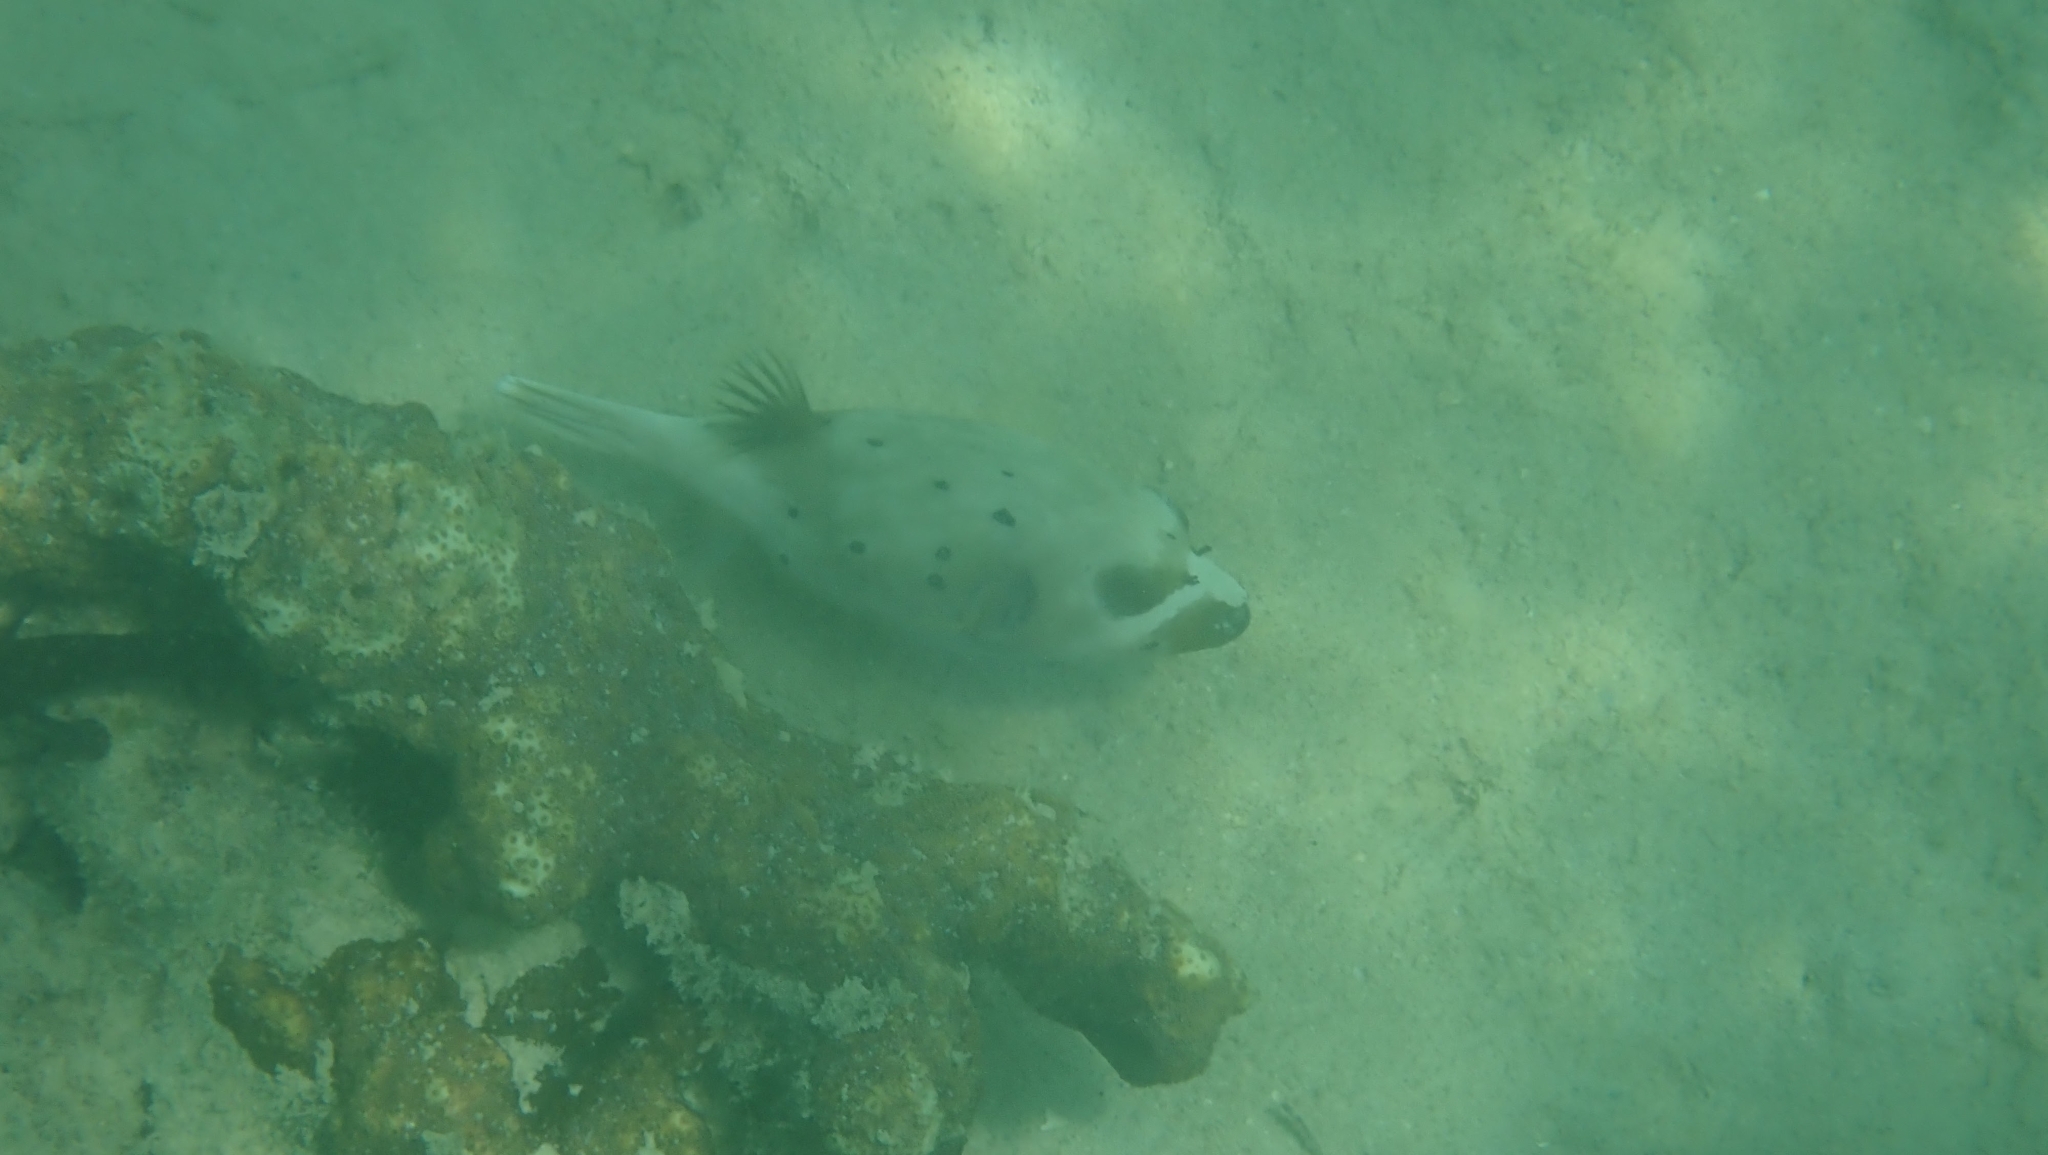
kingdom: Animalia
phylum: Chordata
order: Tetraodontiformes
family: Tetraodontidae
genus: Arothron
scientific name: Arothron nigropunctatus
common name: Black spotted blow fish
